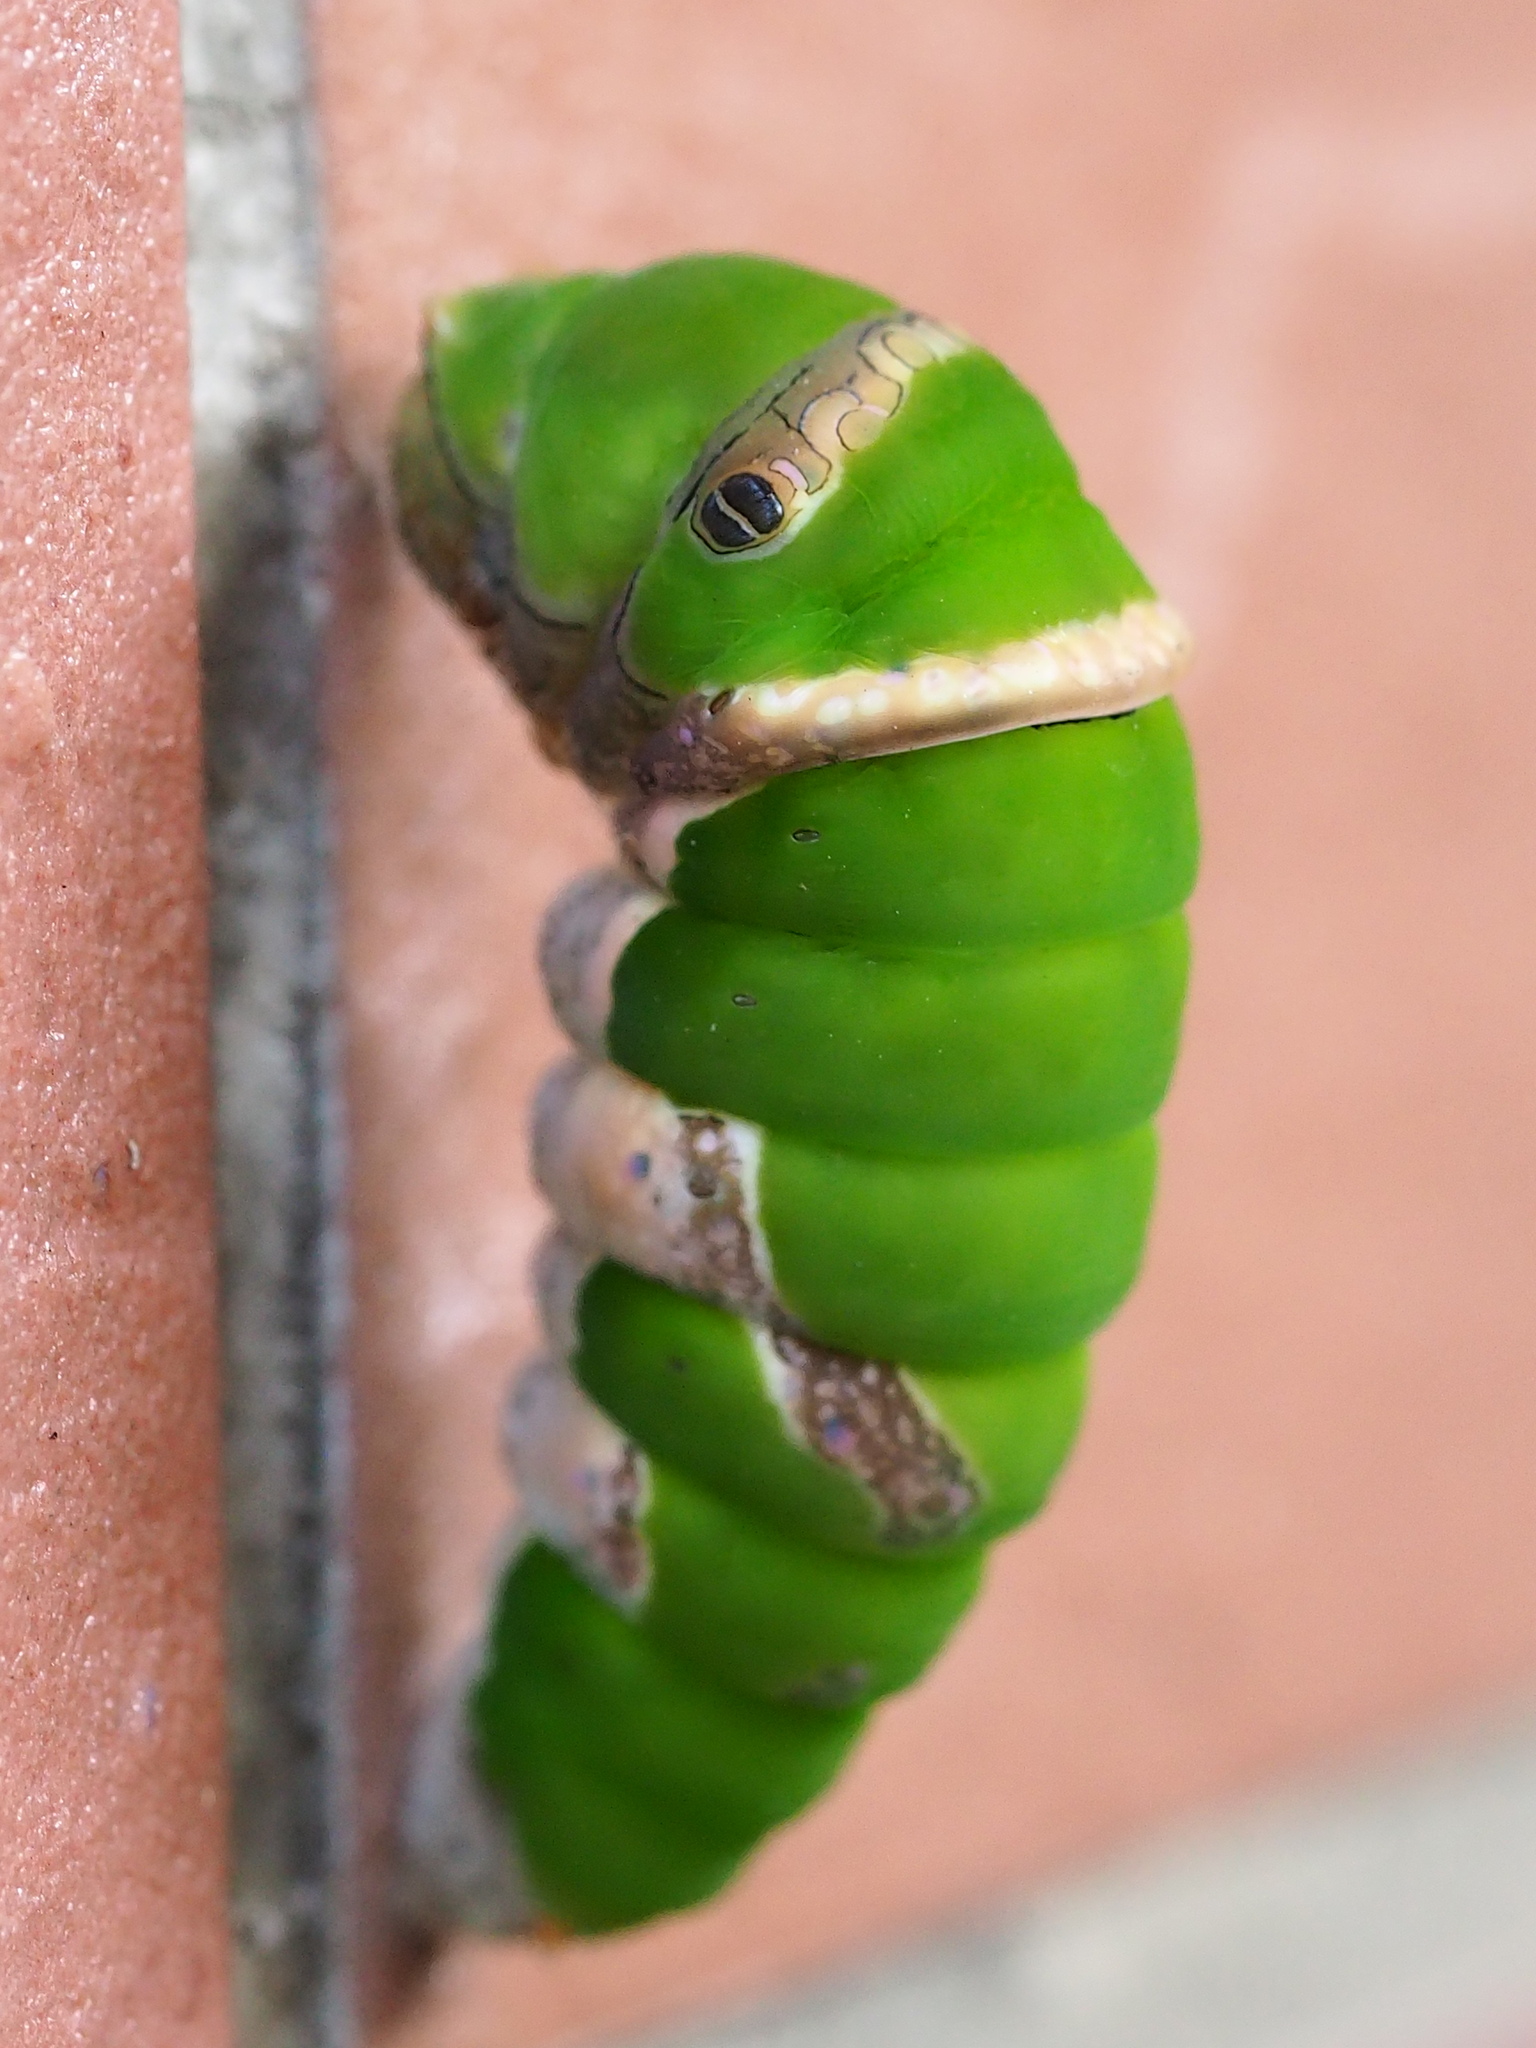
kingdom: Animalia
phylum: Arthropoda
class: Insecta
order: Lepidoptera
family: Papilionidae
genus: Papilio
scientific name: Papilio demoleus
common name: Lime butterfly
